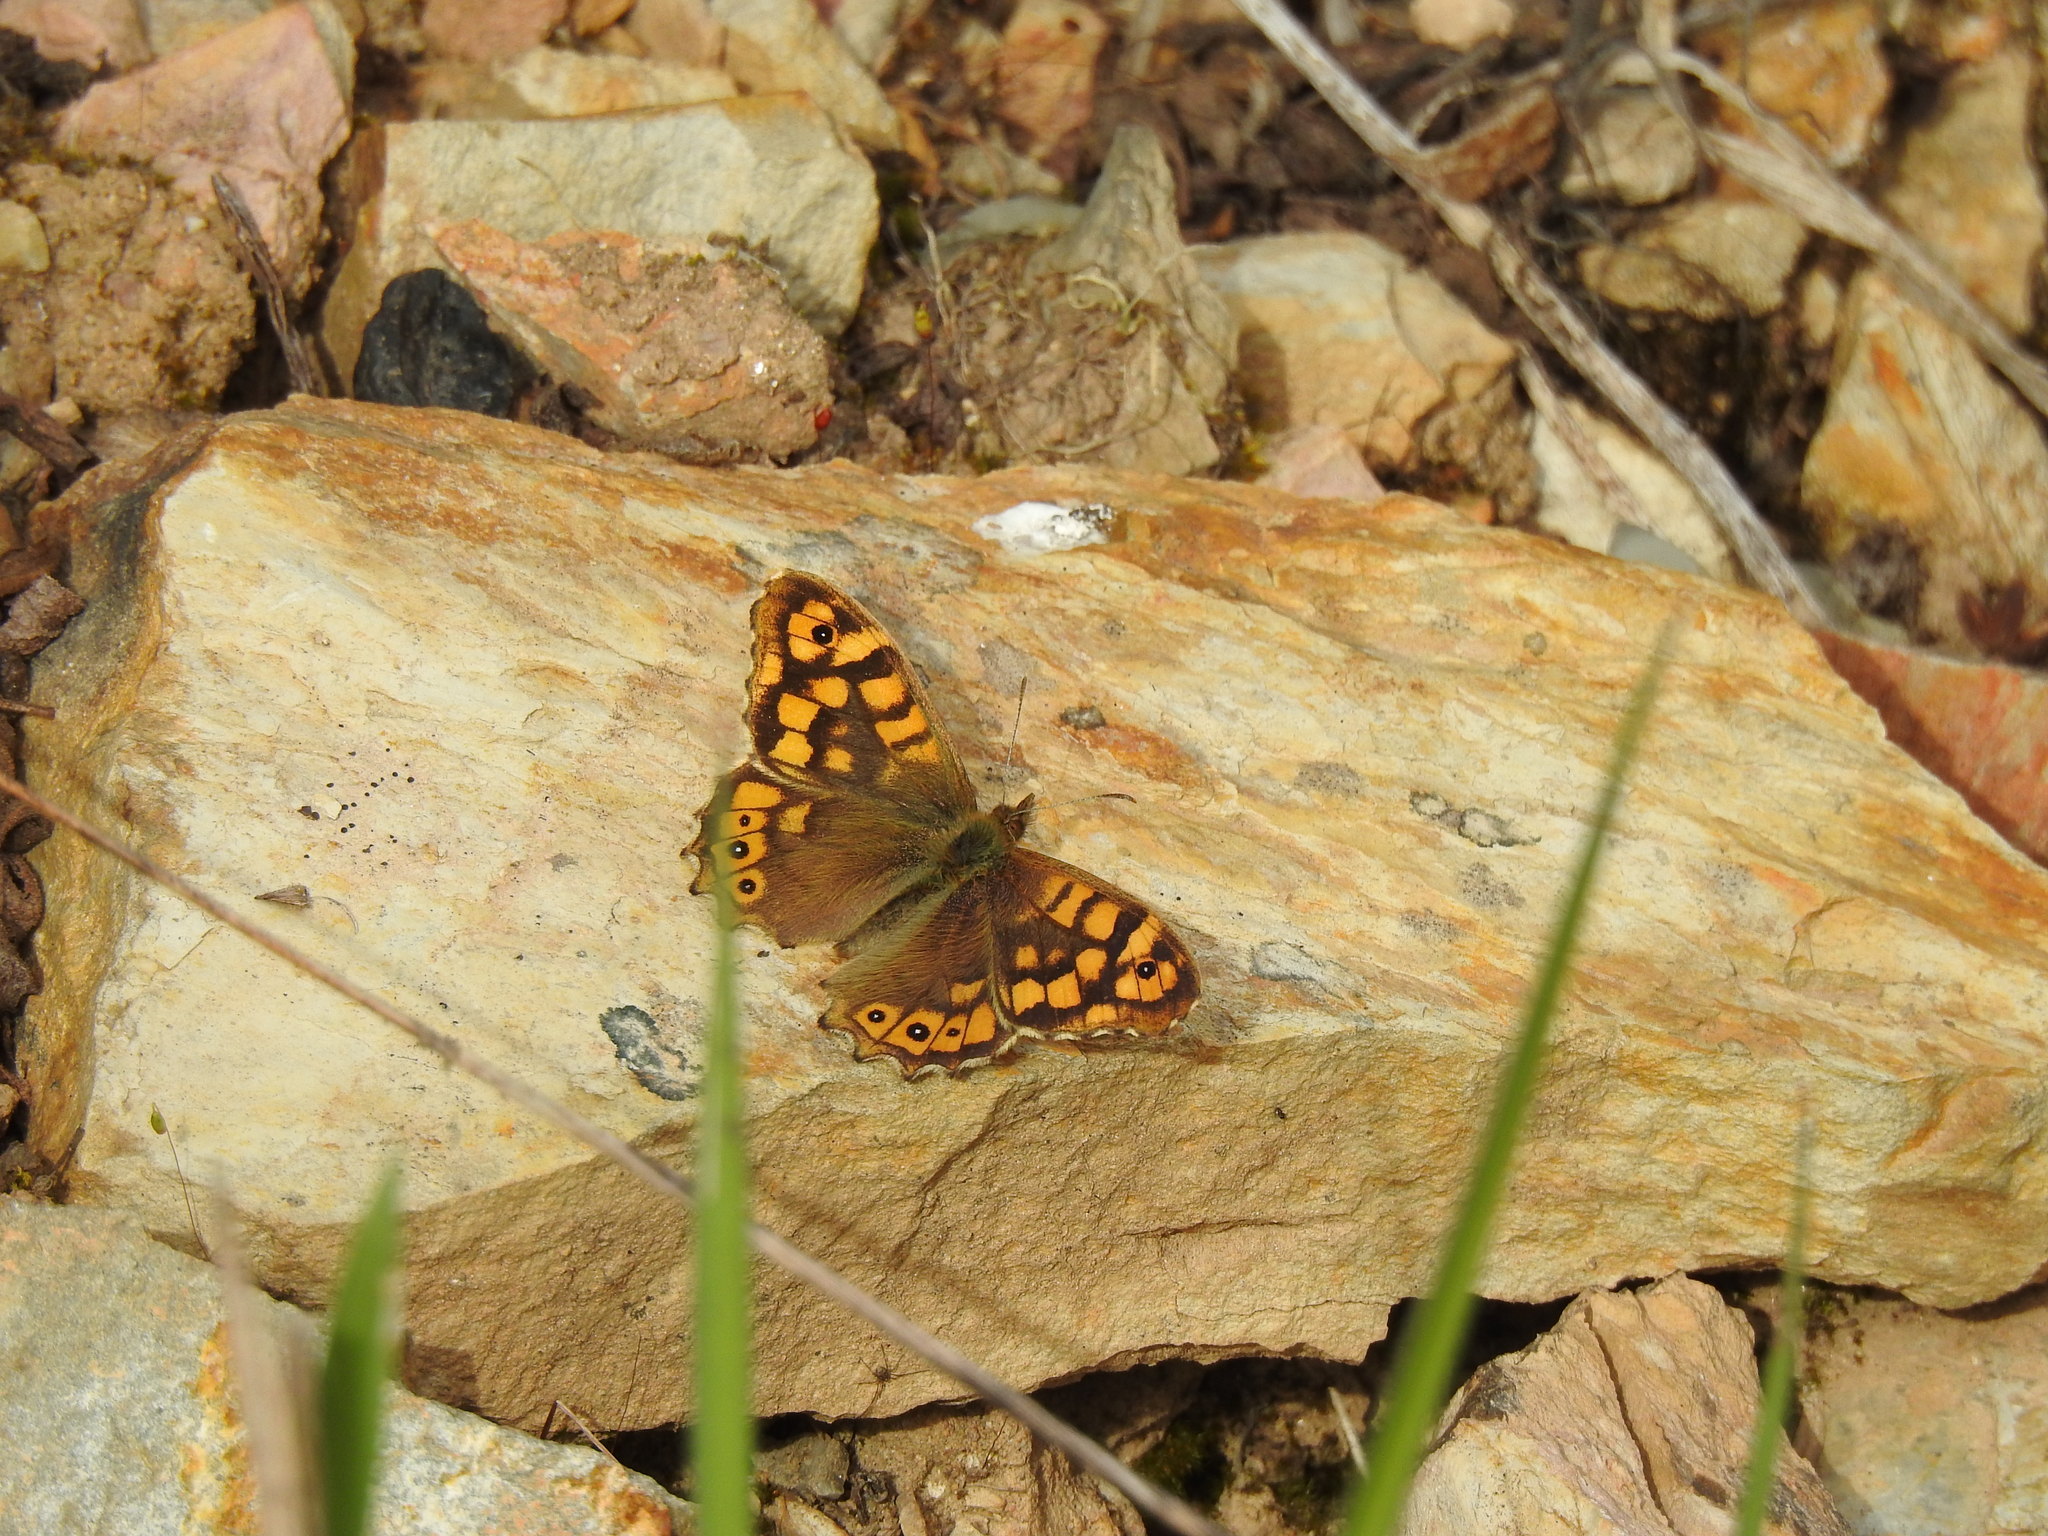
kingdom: Animalia
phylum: Arthropoda
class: Insecta
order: Lepidoptera
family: Nymphalidae
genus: Pararge
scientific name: Pararge aegeria
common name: Speckled wood
